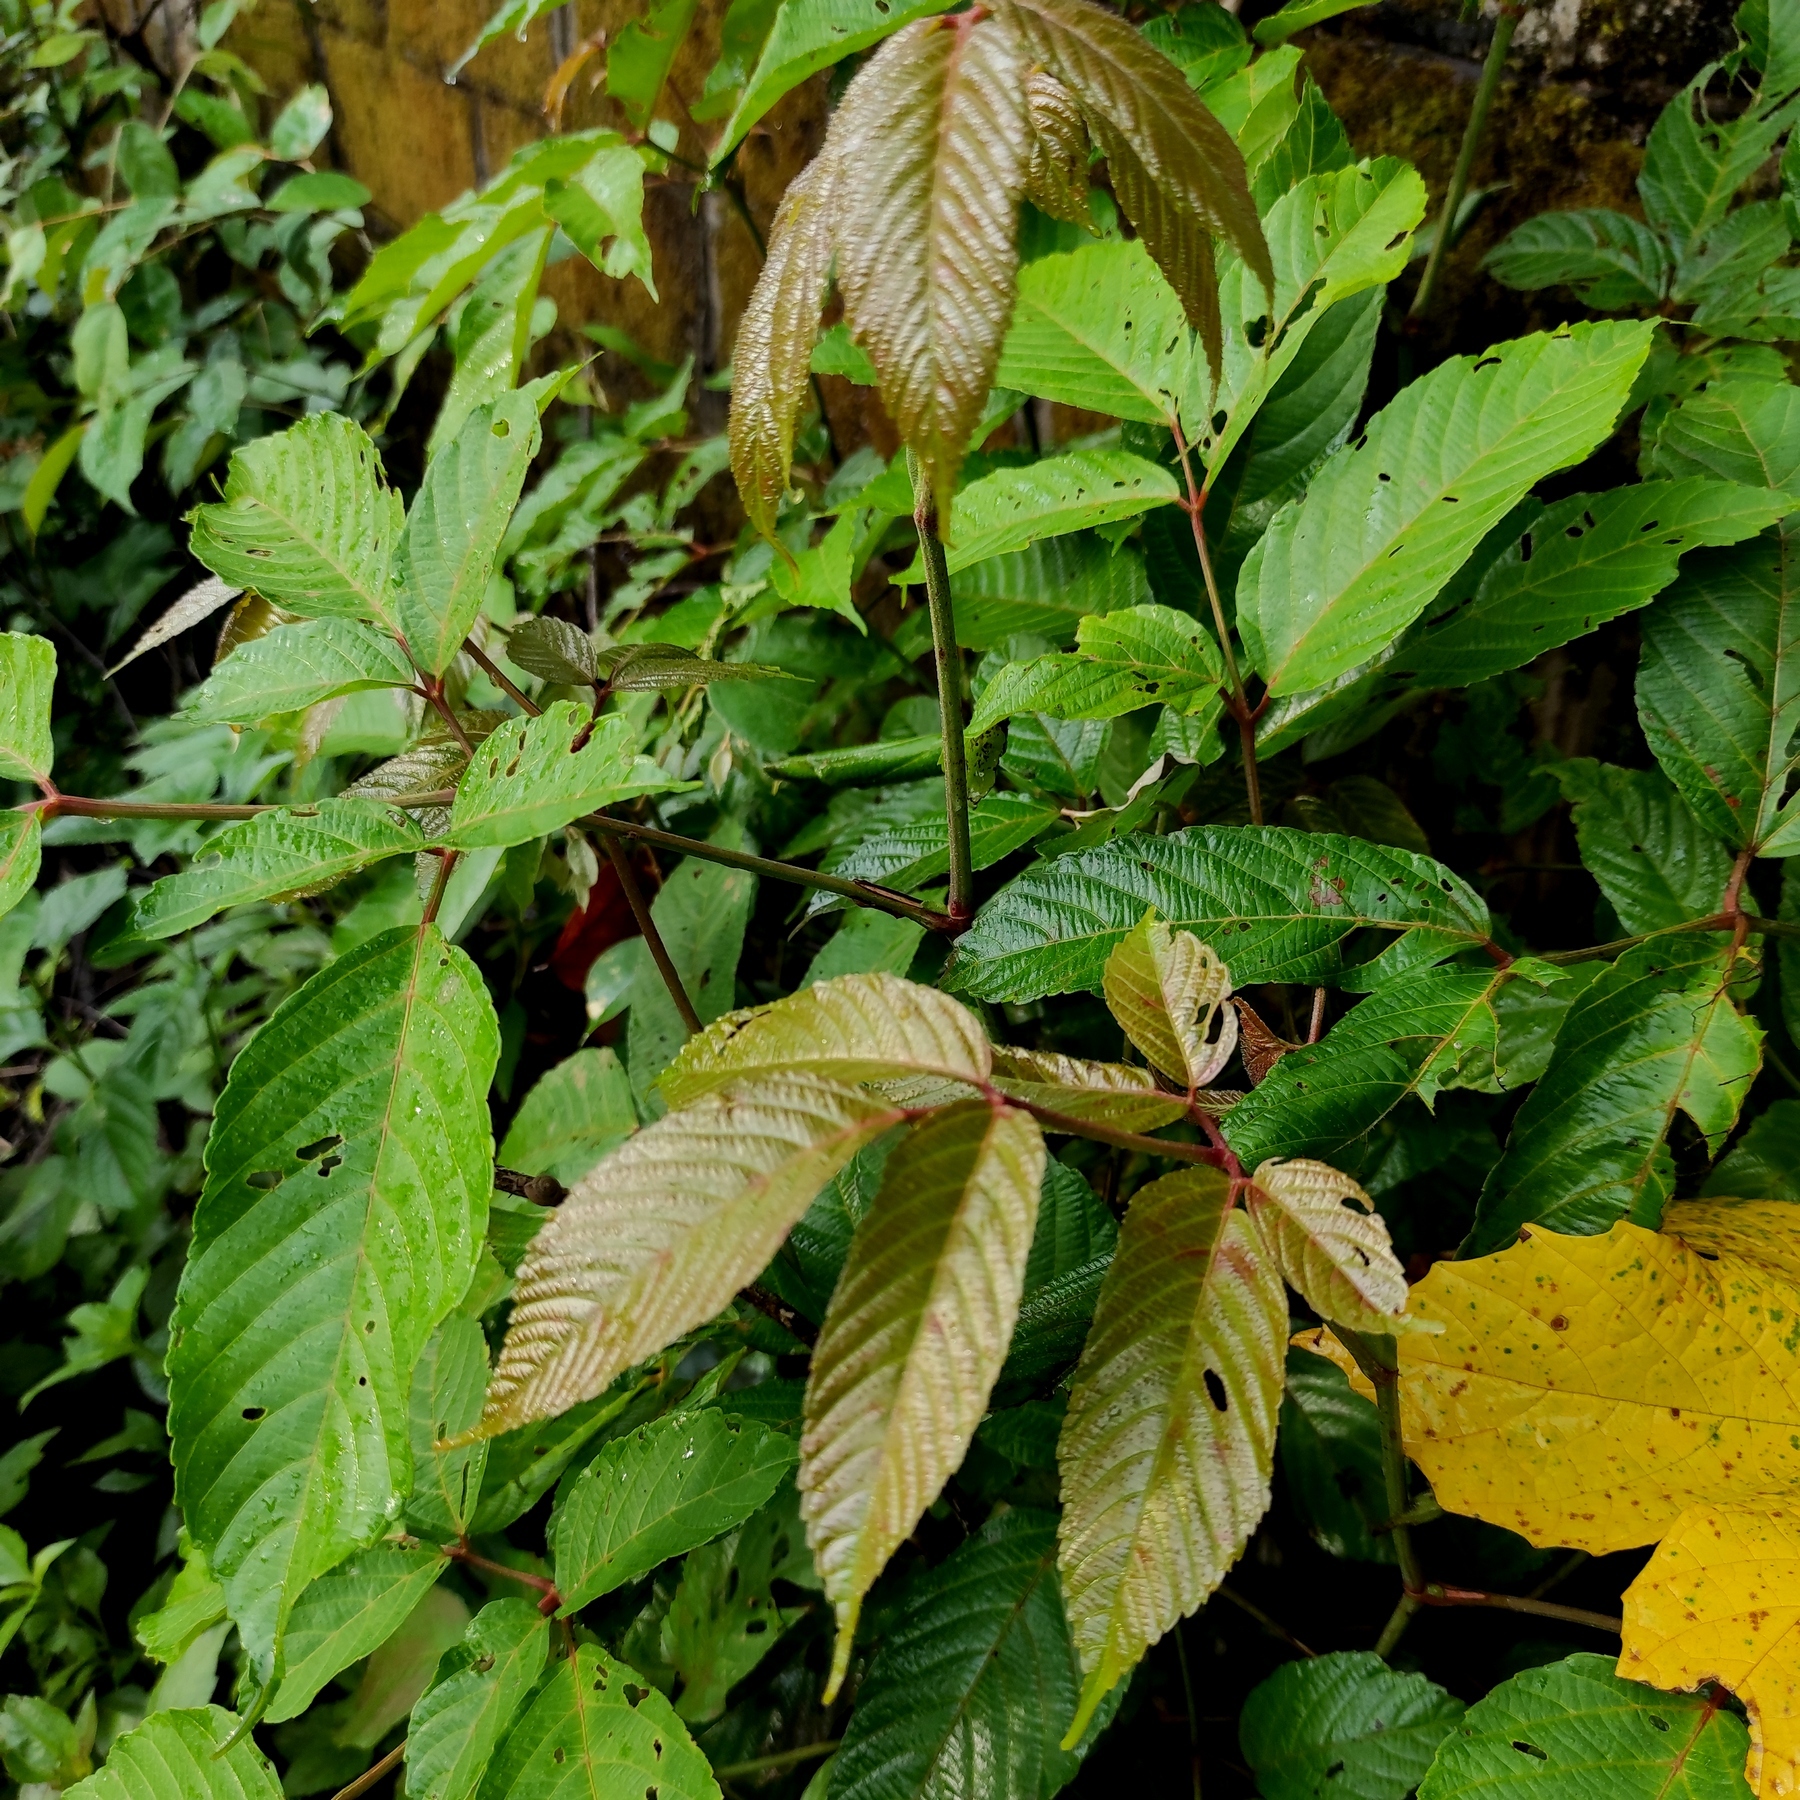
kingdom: Plantae
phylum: Tracheophyta
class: Magnoliopsida
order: Vitales
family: Vitaceae
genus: Leea
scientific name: Leea indica
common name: Bandicoot-berry
